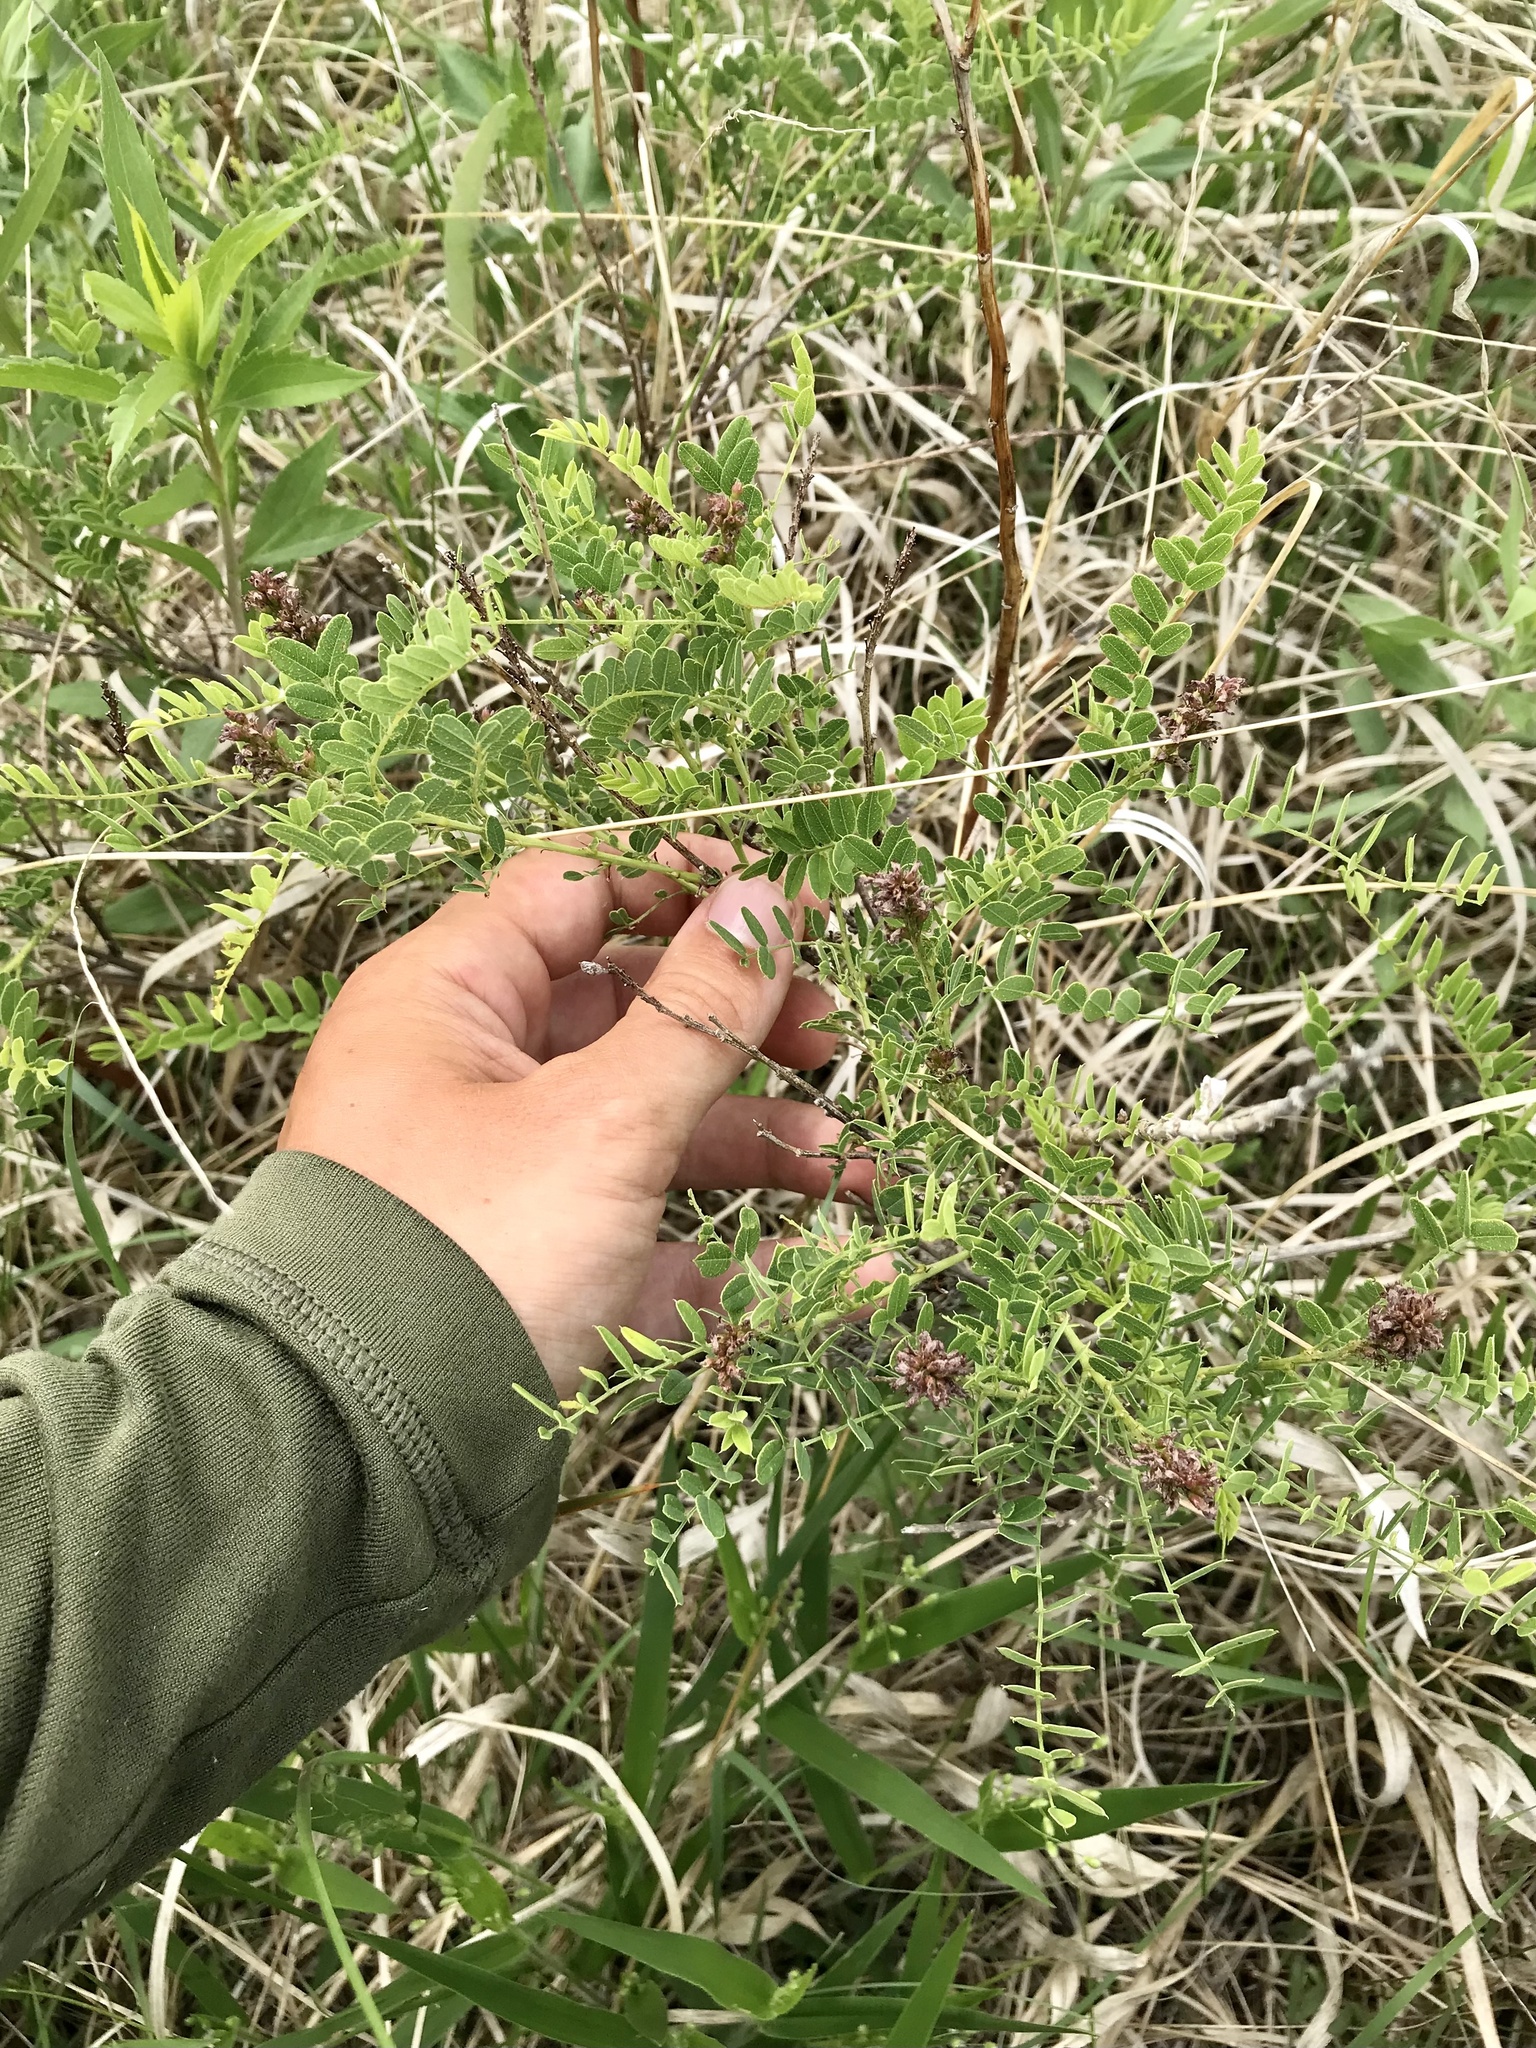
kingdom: Plantae
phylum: Tracheophyta
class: Magnoliopsida
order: Fabales
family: Fabaceae
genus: Amorpha
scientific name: Amorpha nana
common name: Fragrant false indigo
